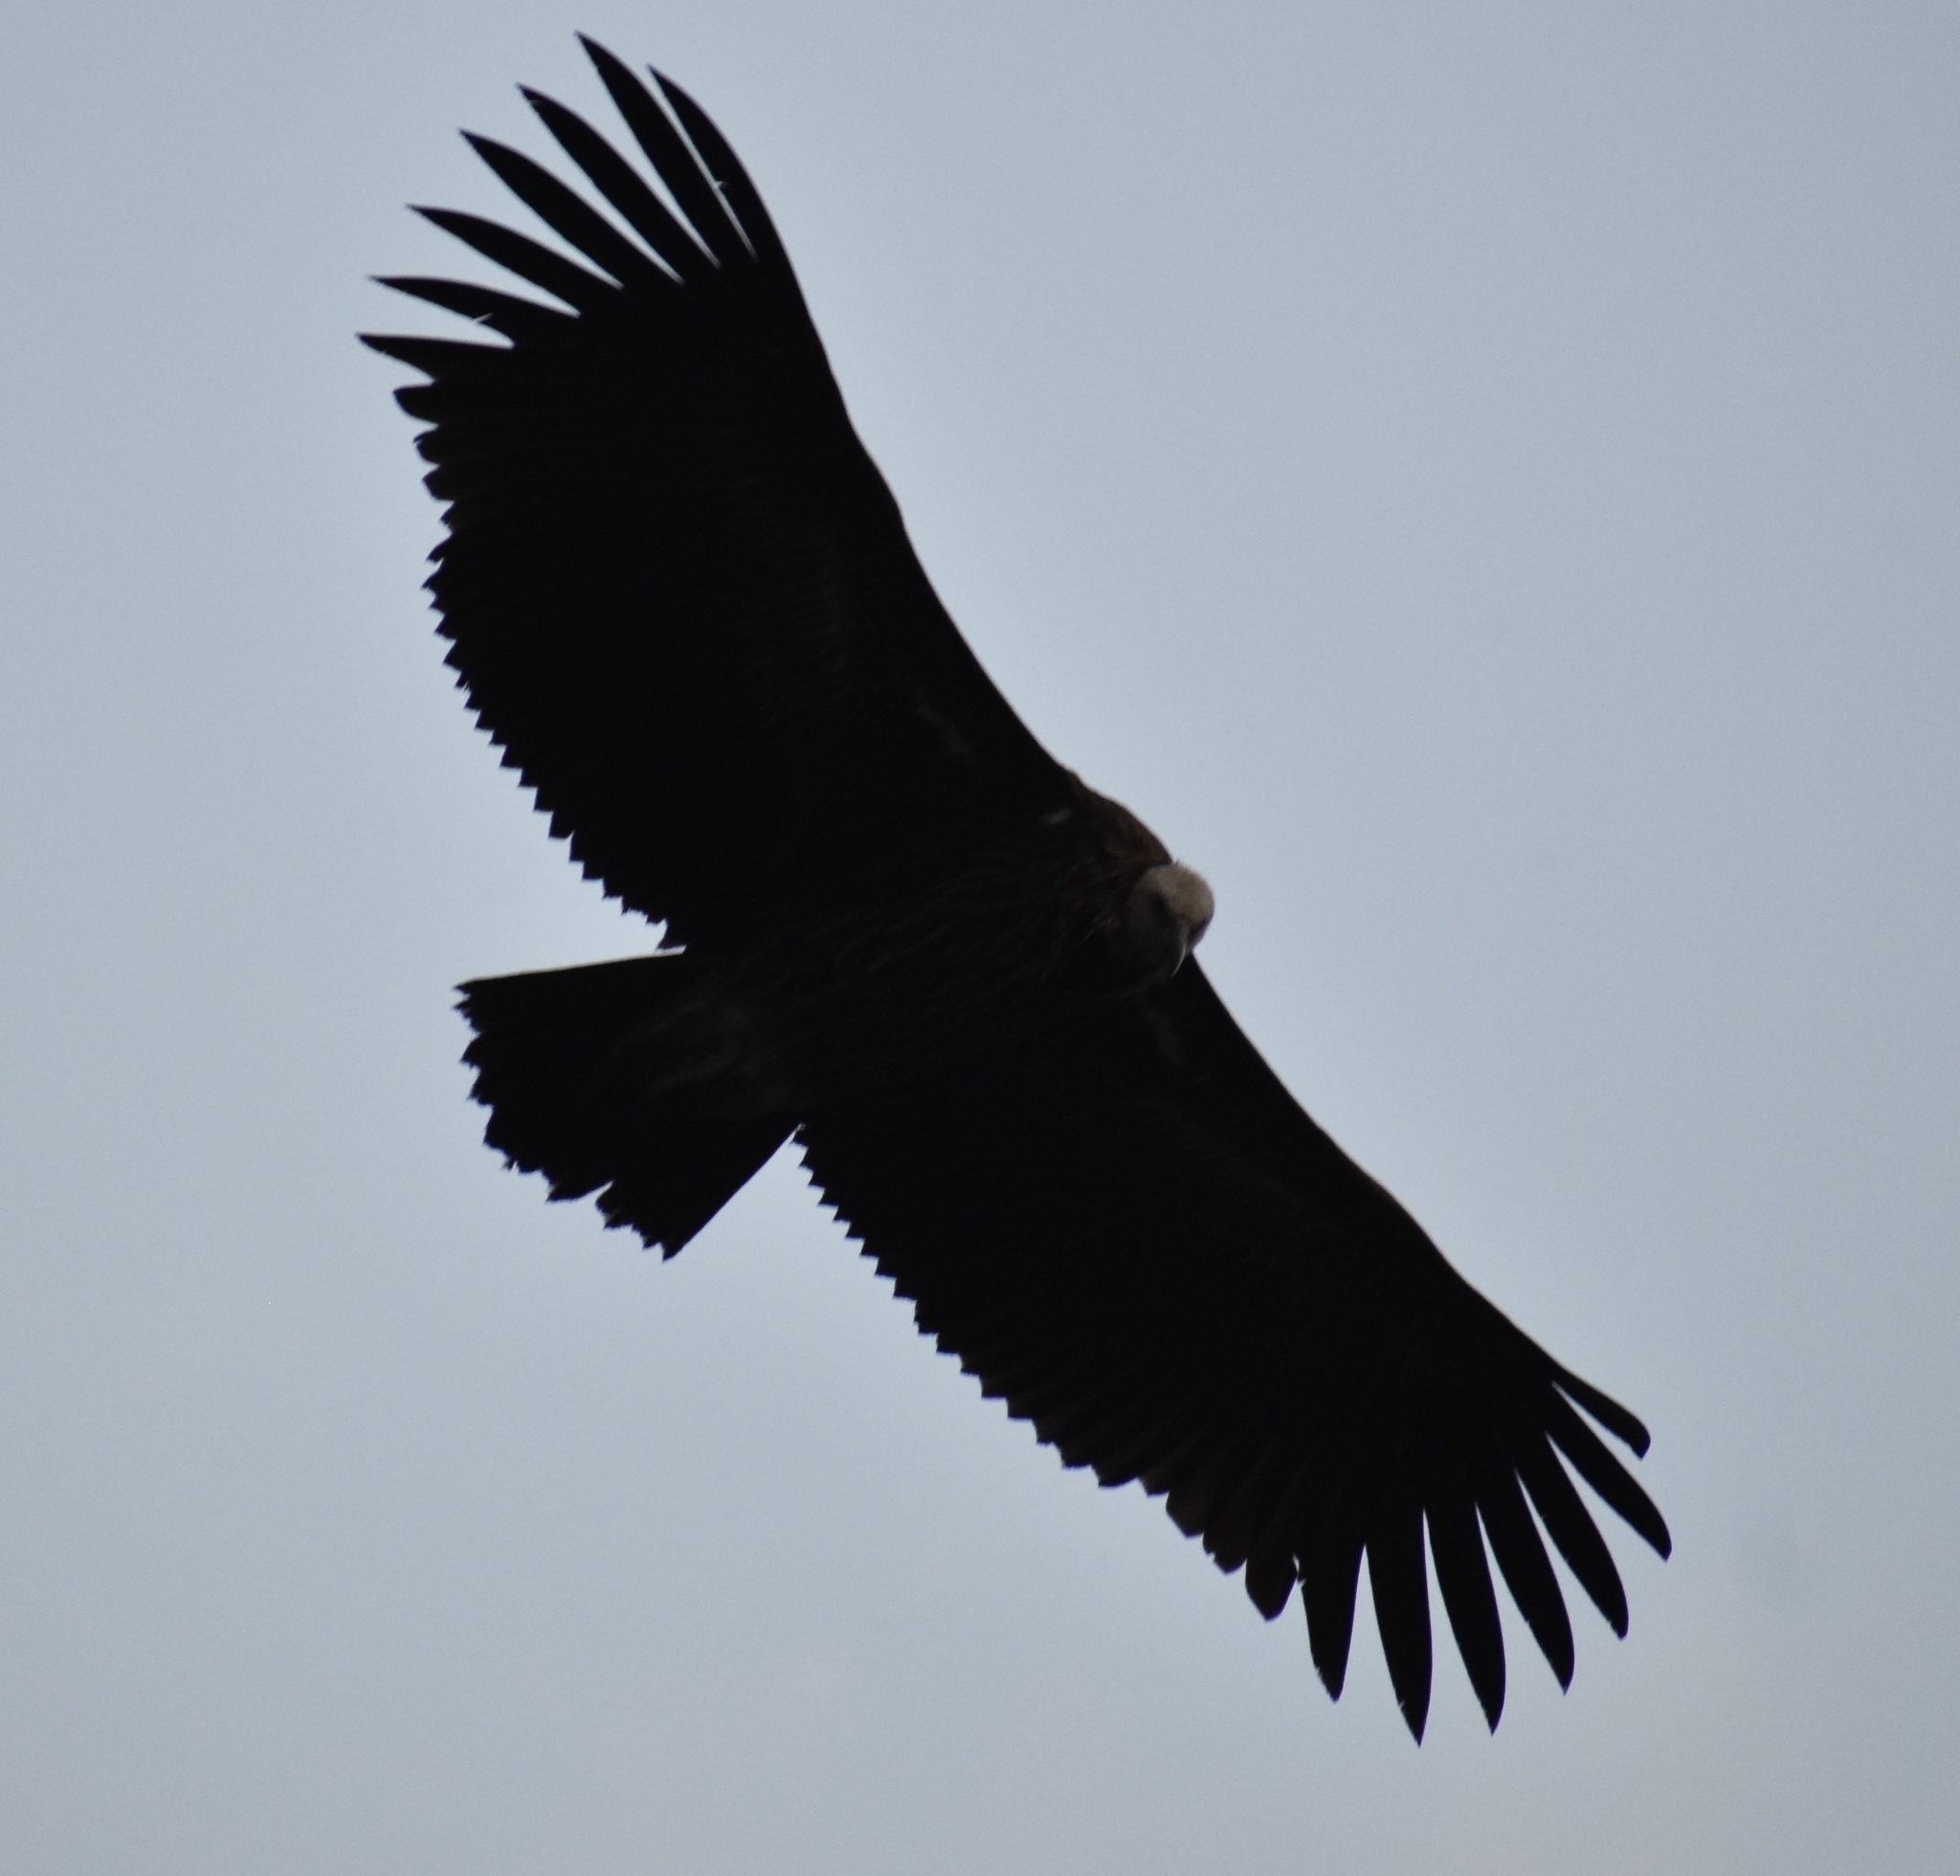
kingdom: Animalia
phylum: Chordata
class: Aves
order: Accipitriformes
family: Accipitridae
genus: Gyps
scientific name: Gyps himalayensis
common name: Himalayan griffon
